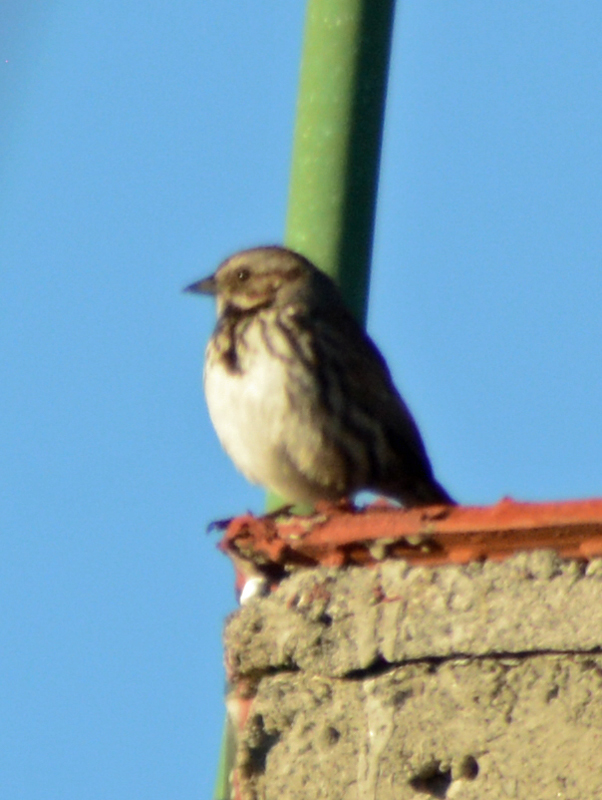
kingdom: Animalia
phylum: Chordata
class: Aves
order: Passeriformes
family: Passerellidae
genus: Melospiza
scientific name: Melospiza melodia
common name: Song sparrow
